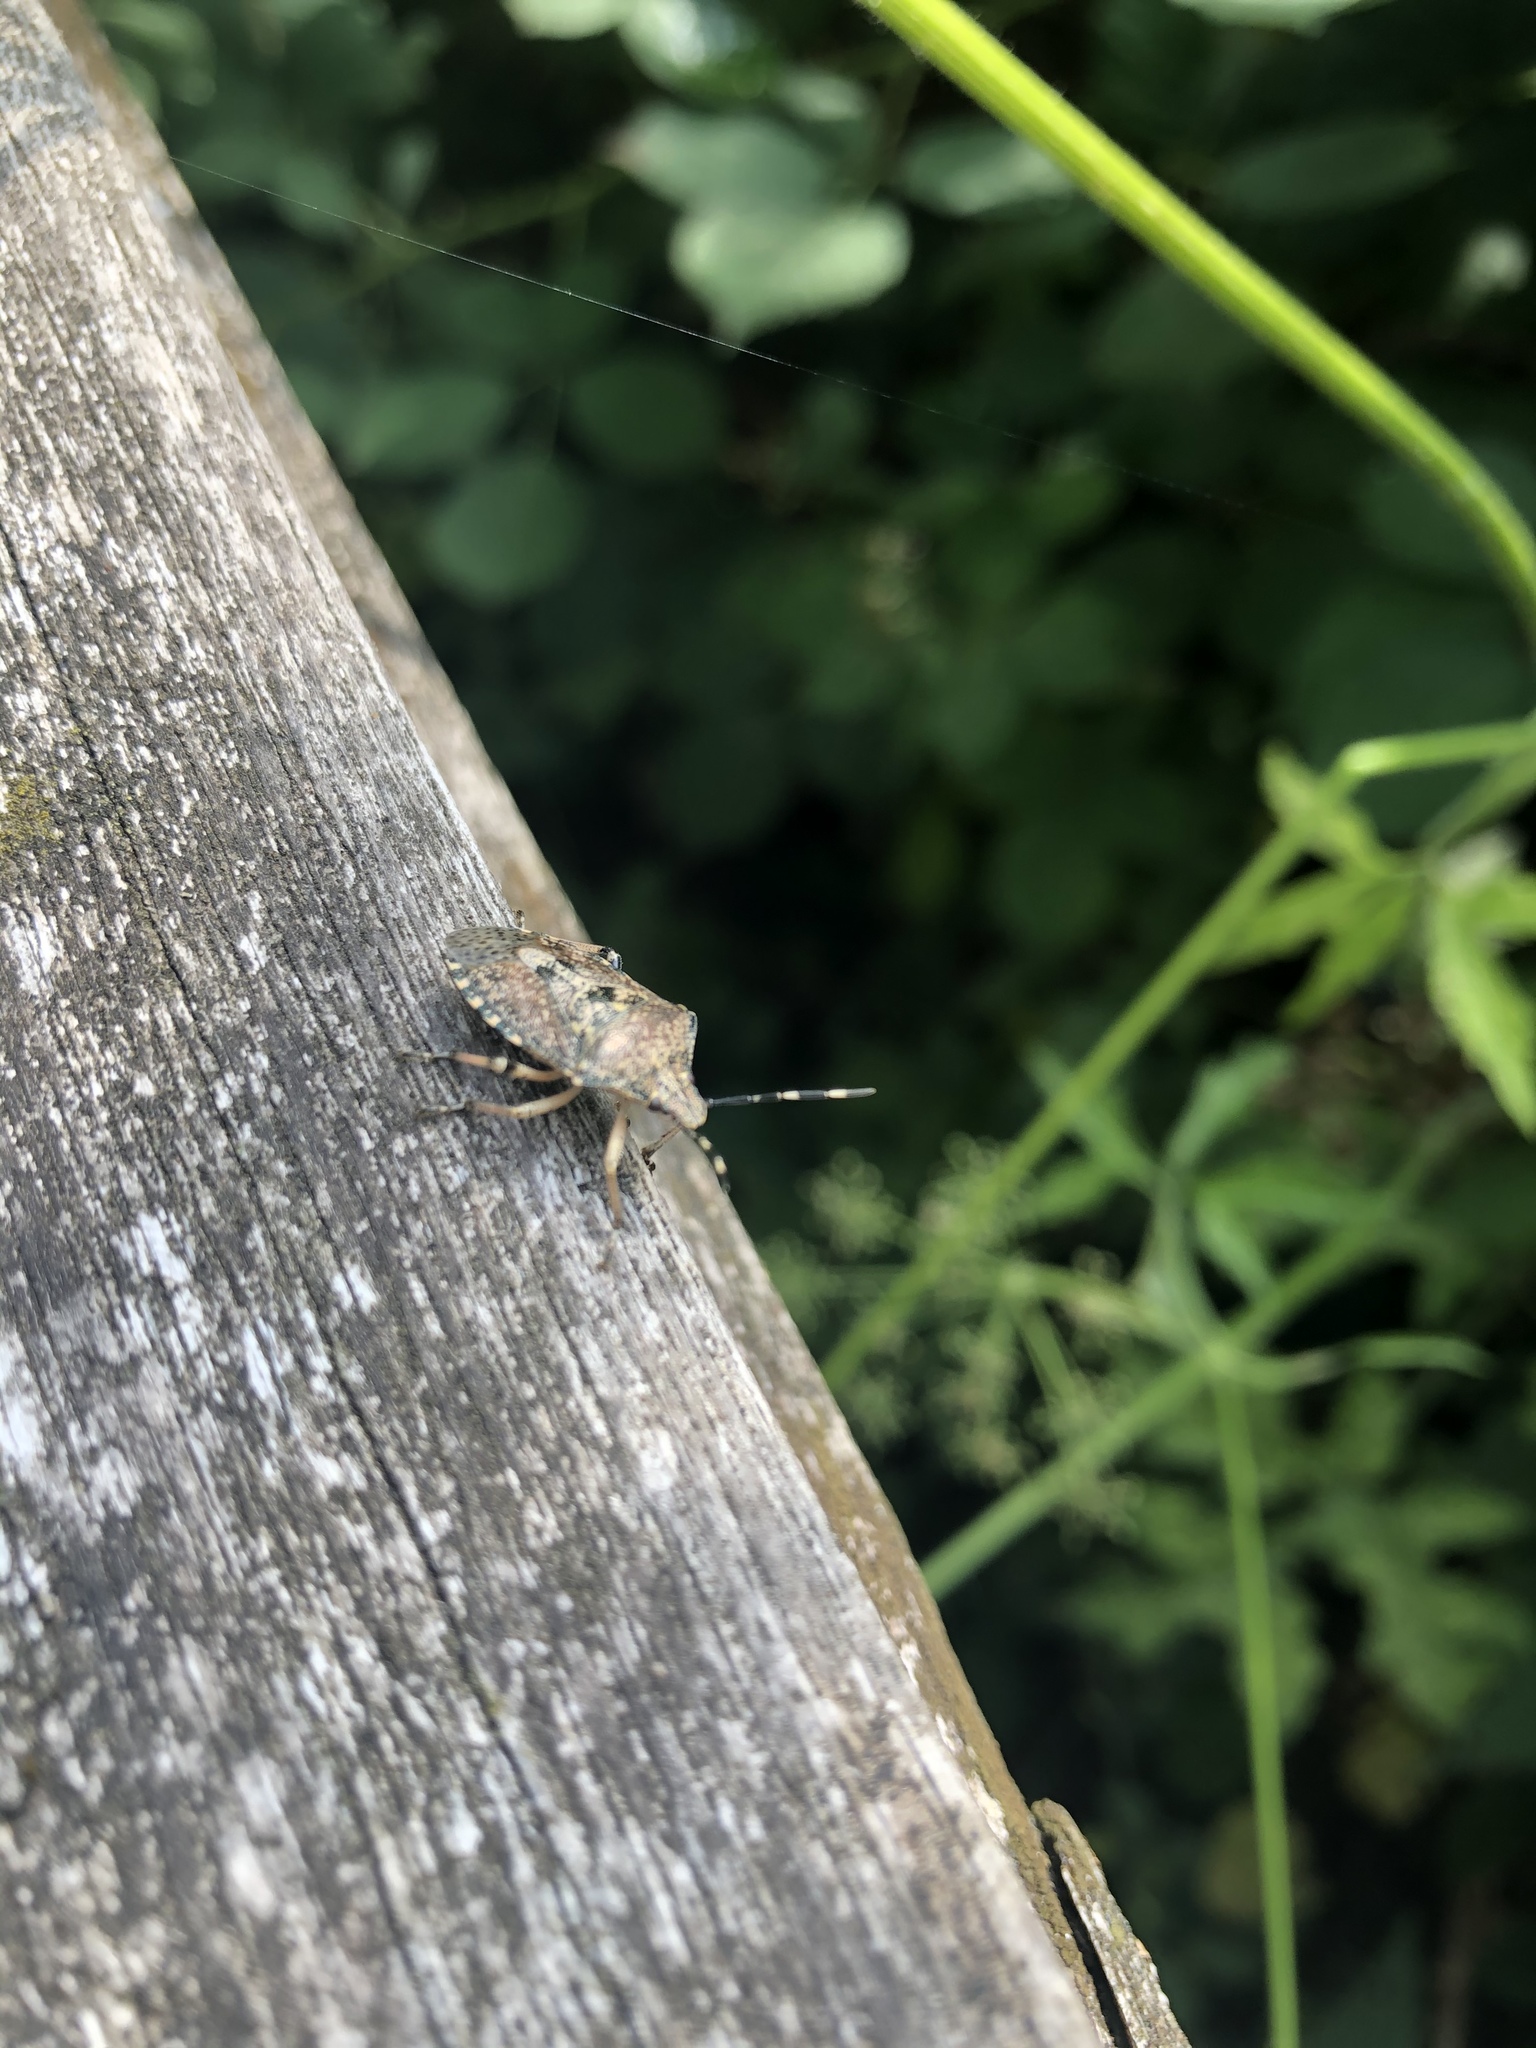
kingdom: Animalia
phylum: Arthropoda
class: Insecta
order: Hemiptera
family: Pentatomidae
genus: Rhaphigaster
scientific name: Rhaphigaster nebulosa
